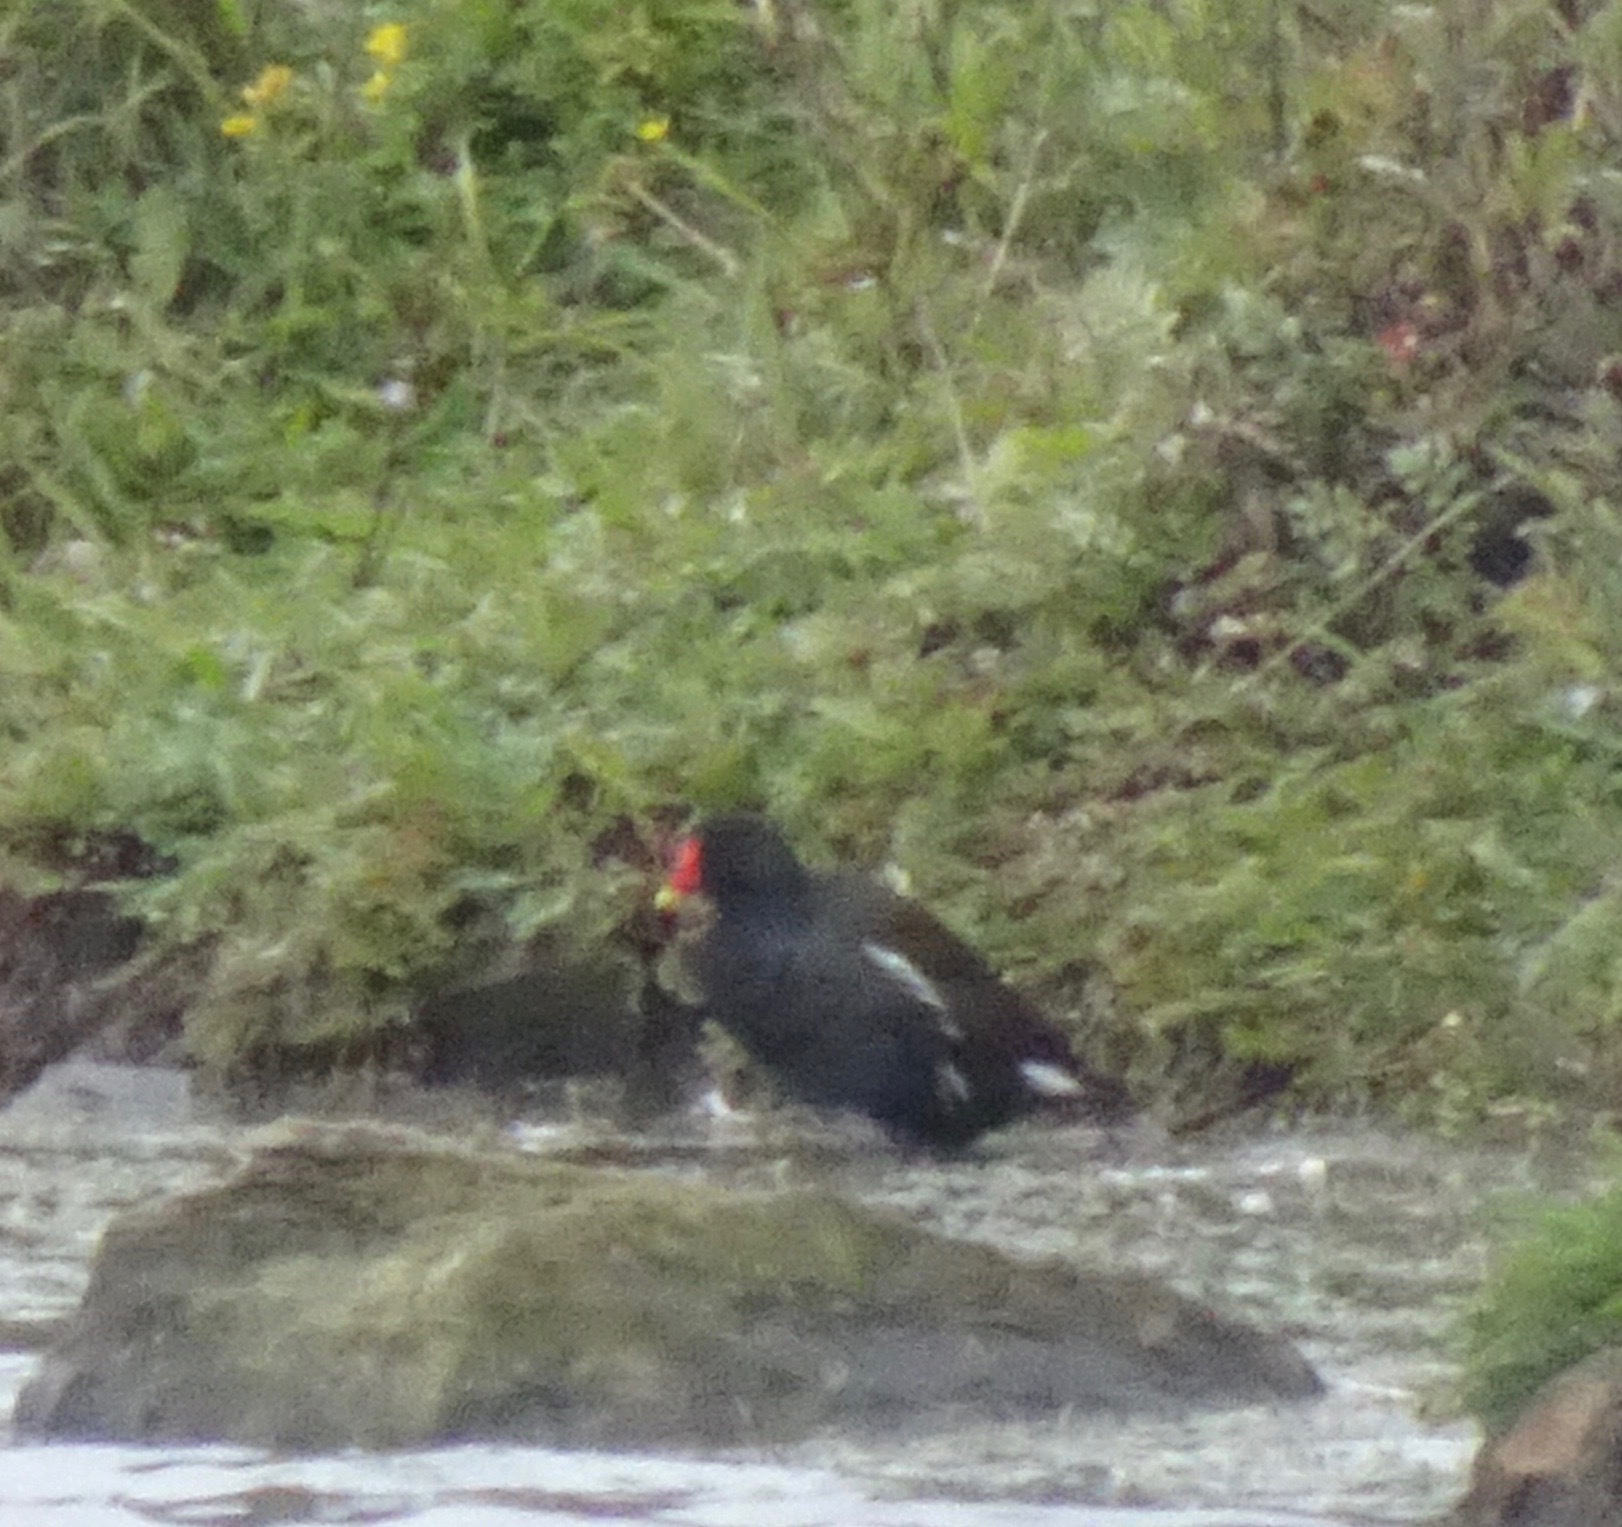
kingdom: Animalia
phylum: Chordata
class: Aves
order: Gruiformes
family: Rallidae
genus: Gallinula
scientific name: Gallinula chloropus
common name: Common moorhen
